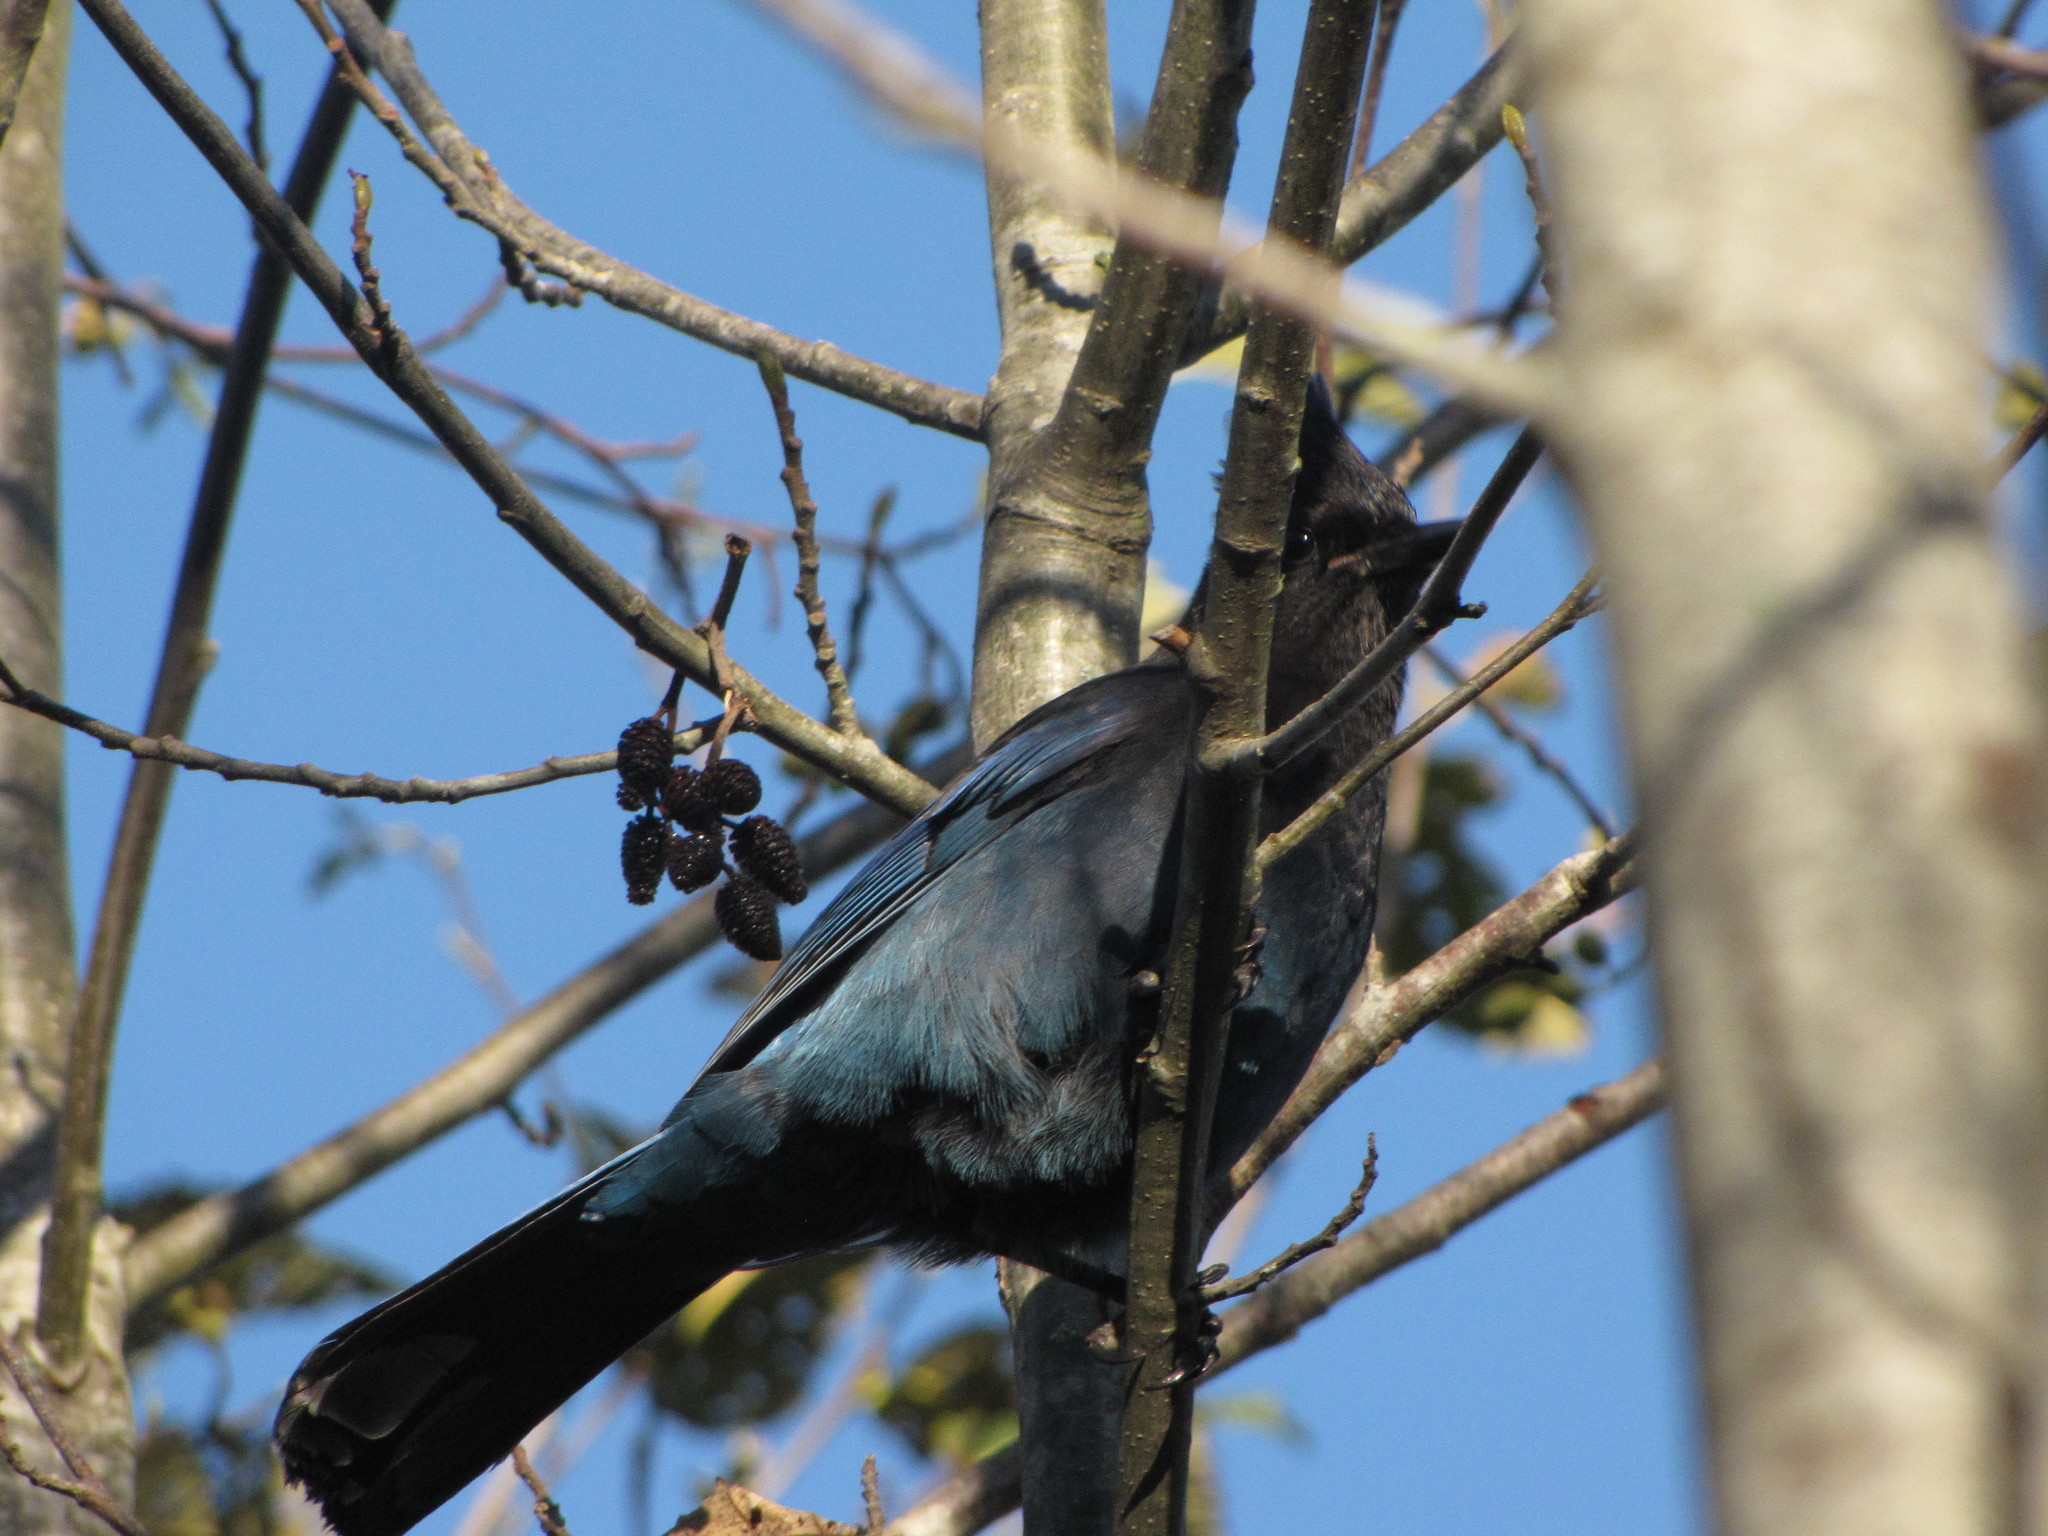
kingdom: Animalia
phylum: Chordata
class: Aves
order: Passeriformes
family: Corvidae
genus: Cyanocitta
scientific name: Cyanocitta stelleri
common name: Steller's jay
